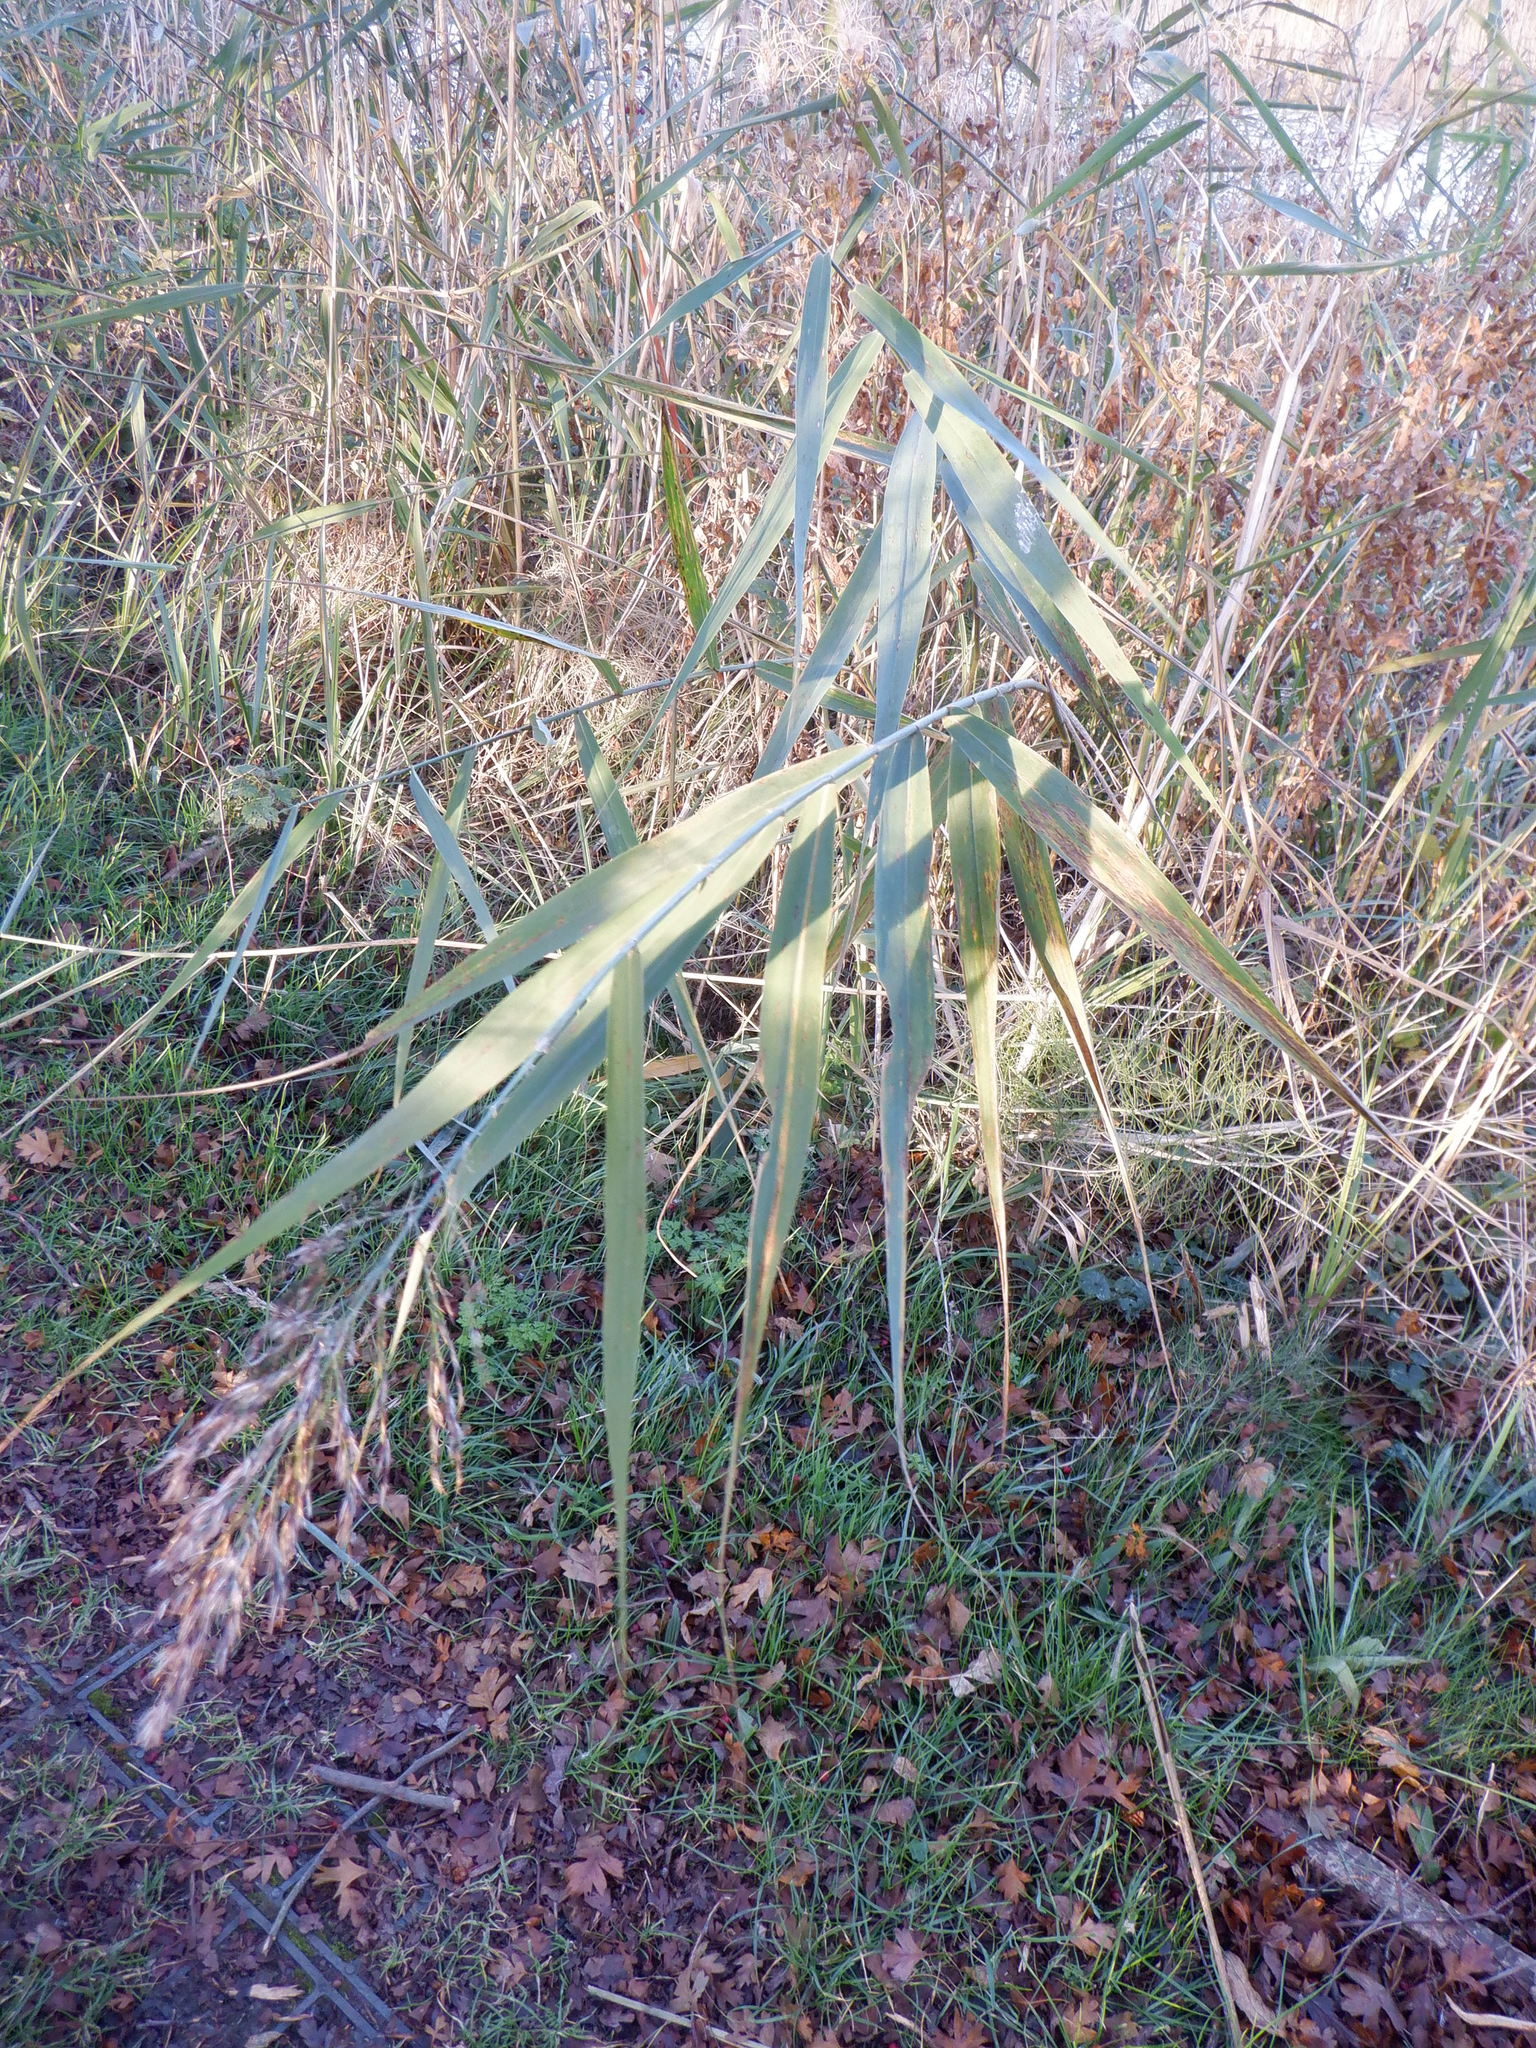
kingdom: Plantae
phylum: Tracheophyta
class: Liliopsida
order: Poales
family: Poaceae
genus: Phragmites
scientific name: Phragmites australis
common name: Common reed
